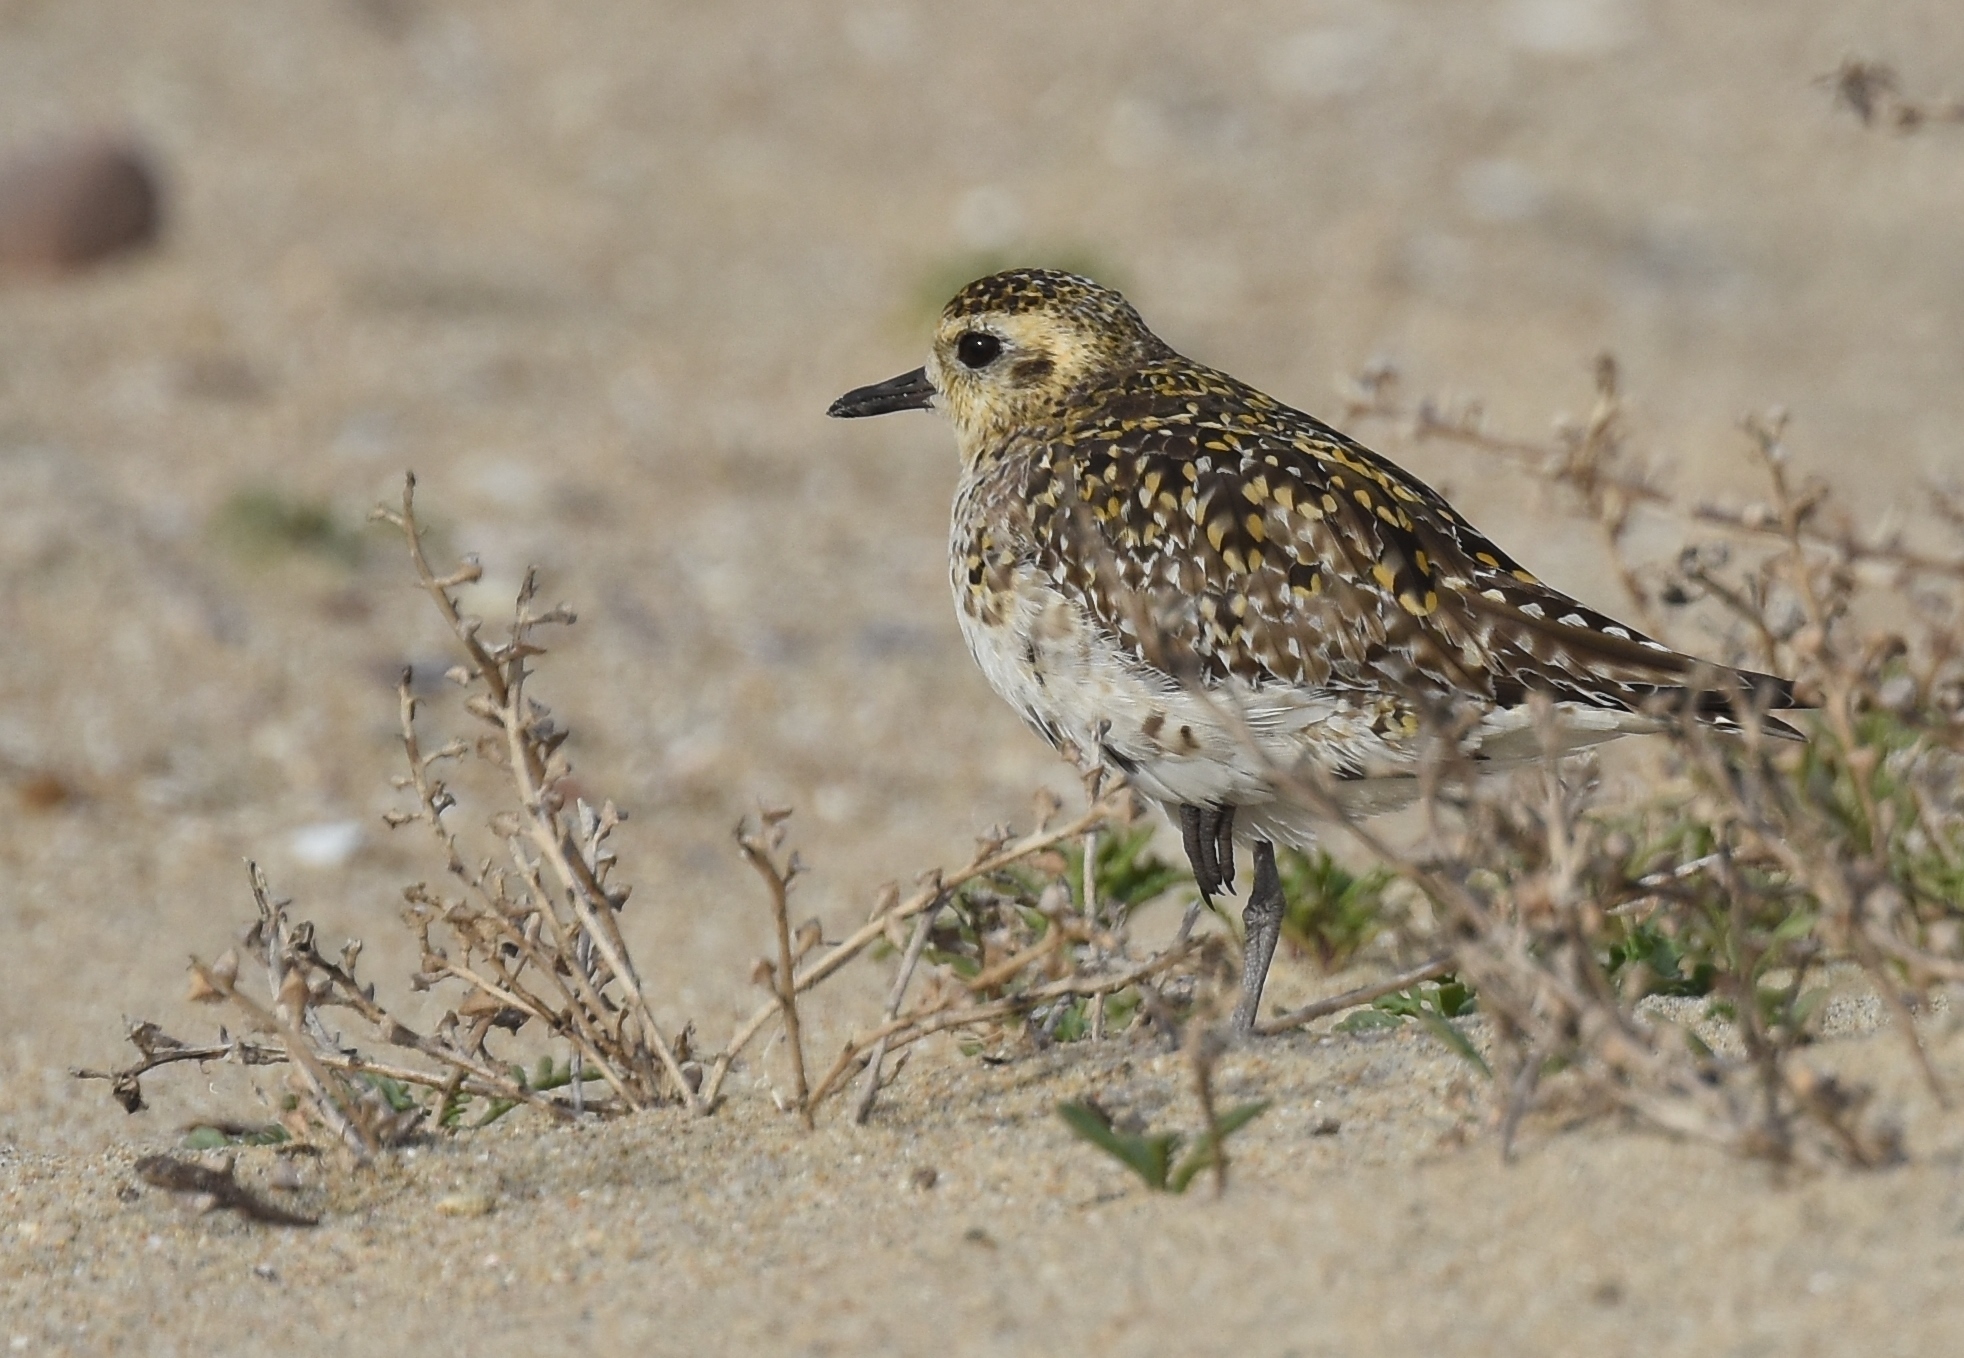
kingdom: Animalia
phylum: Chordata
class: Aves
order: Charadriiformes
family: Charadriidae
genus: Pluvialis
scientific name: Pluvialis fulva
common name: Pacific golden plover
